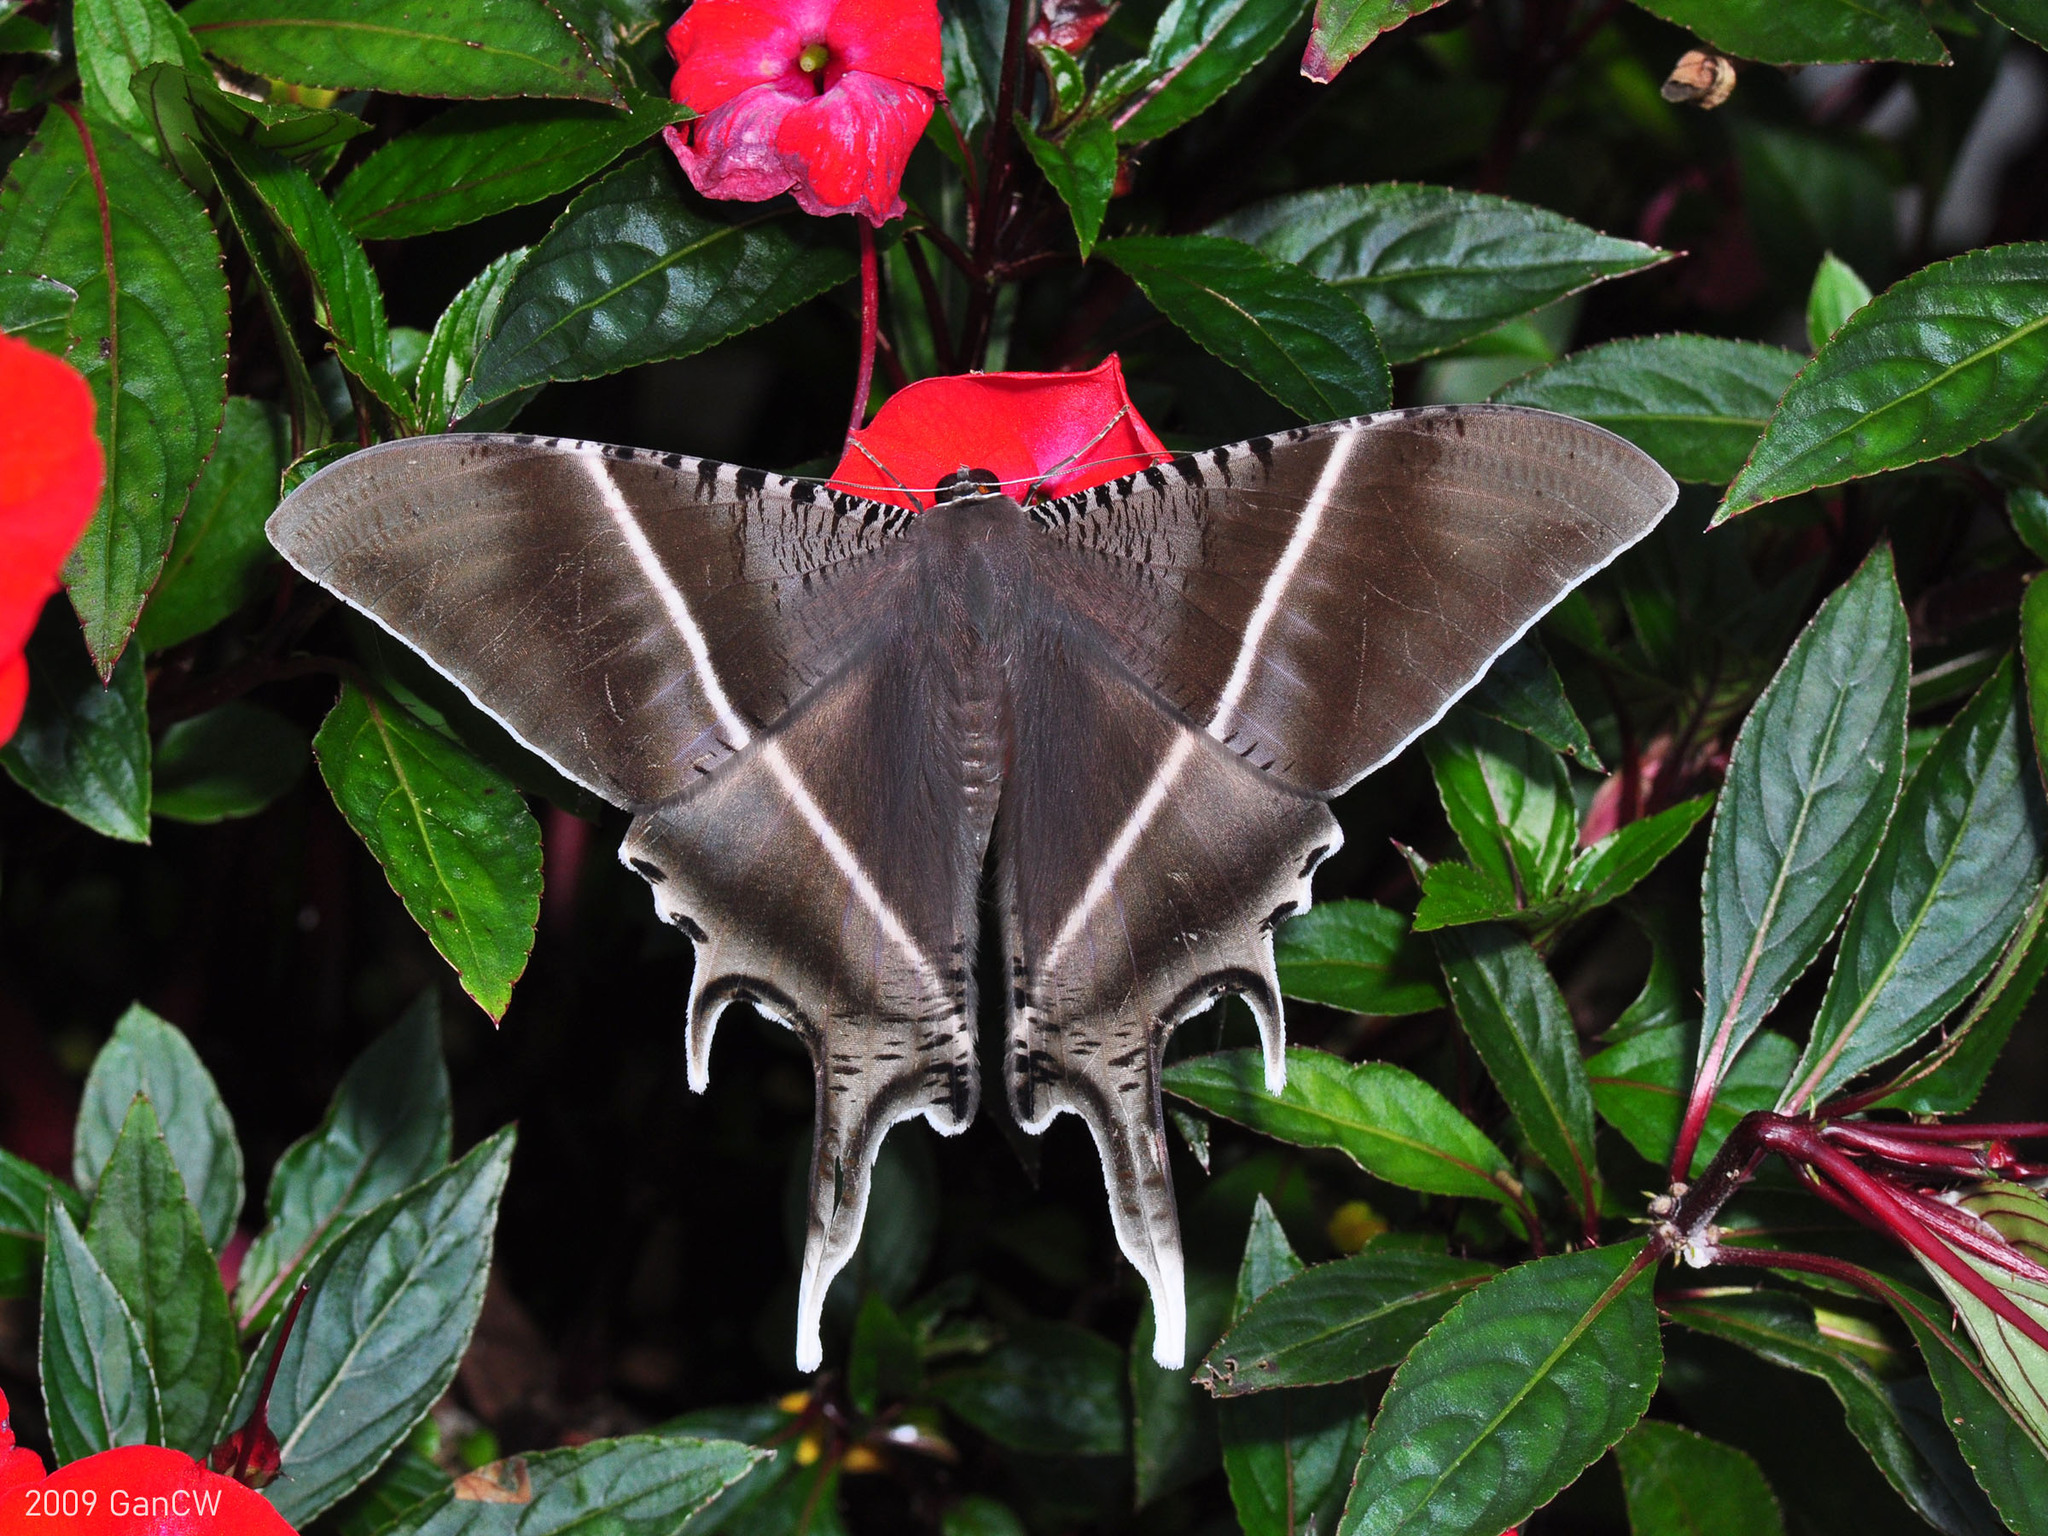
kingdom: Animalia
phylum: Arthropoda
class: Insecta
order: Lepidoptera
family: Uraniidae
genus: Lyssa
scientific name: Lyssa zampa
